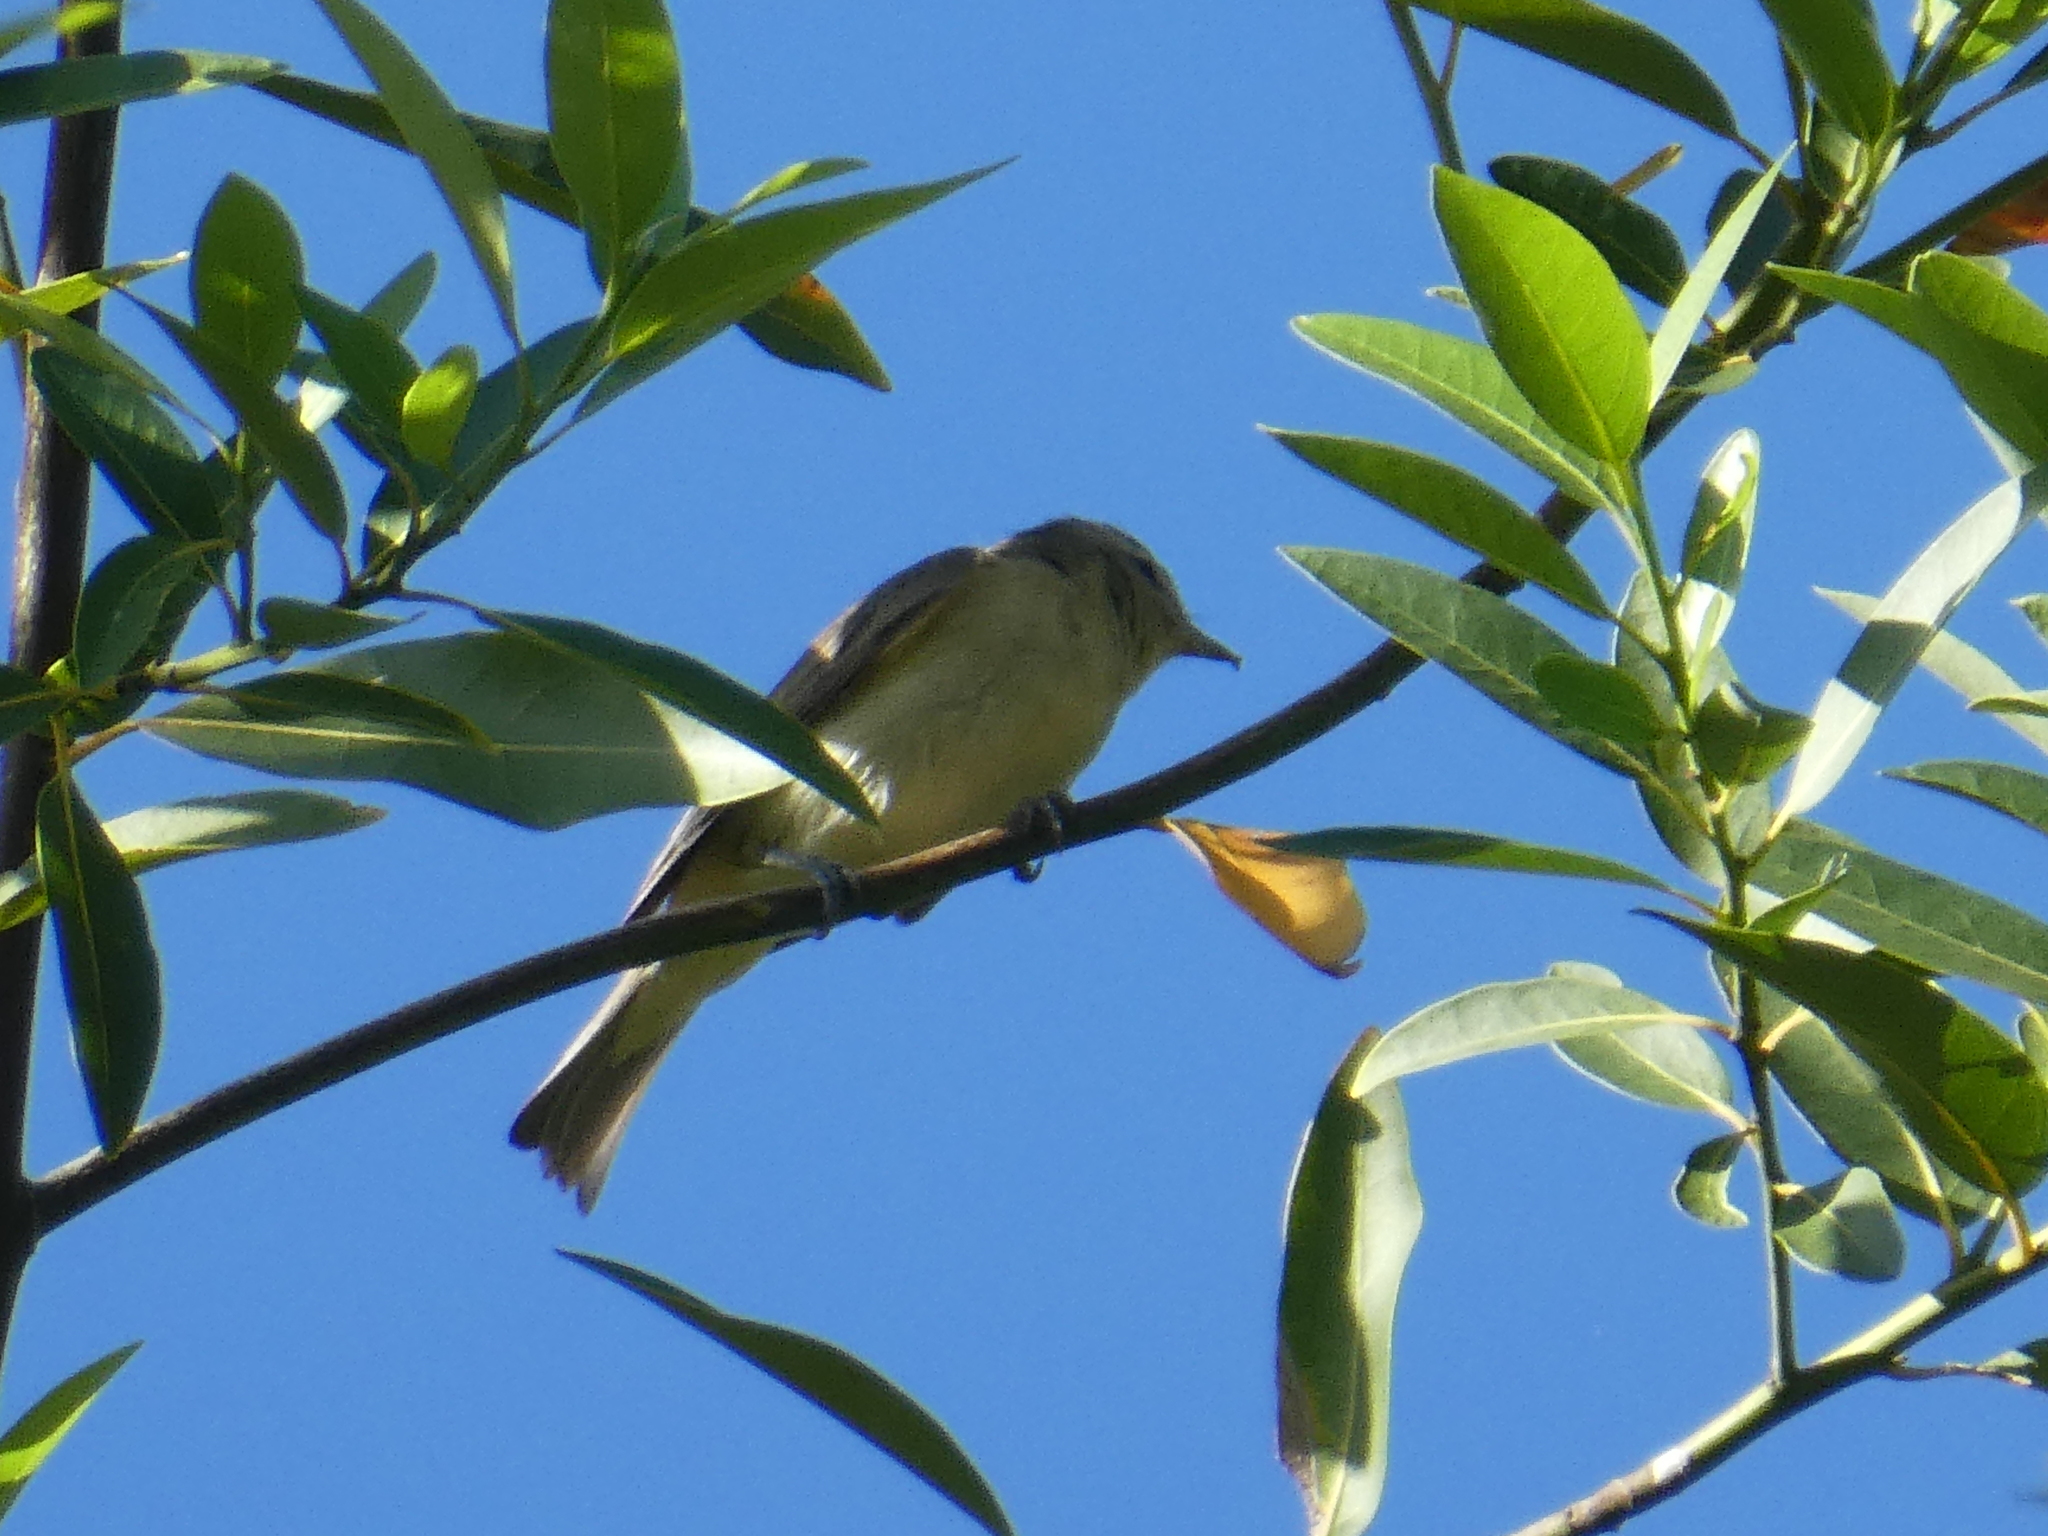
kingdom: Animalia
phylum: Chordata
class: Aves
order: Passeriformes
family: Vireonidae
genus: Vireo
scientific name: Vireo gilvus
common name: Warbling vireo
